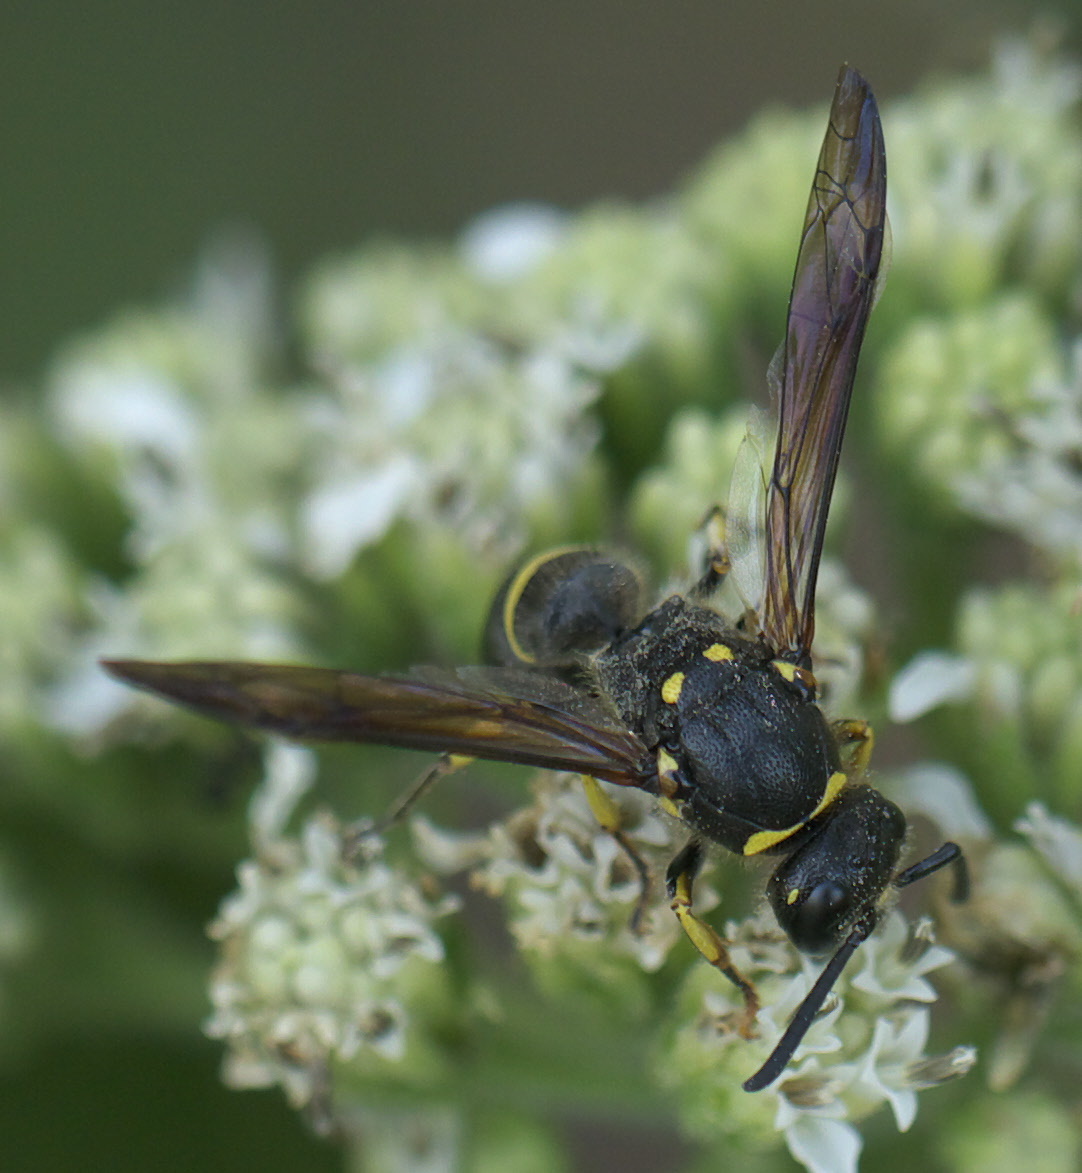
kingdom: Animalia
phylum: Arthropoda
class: Insecta
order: Hymenoptera
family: Vespidae
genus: Ancistrocerus
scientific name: Ancistrocerus
